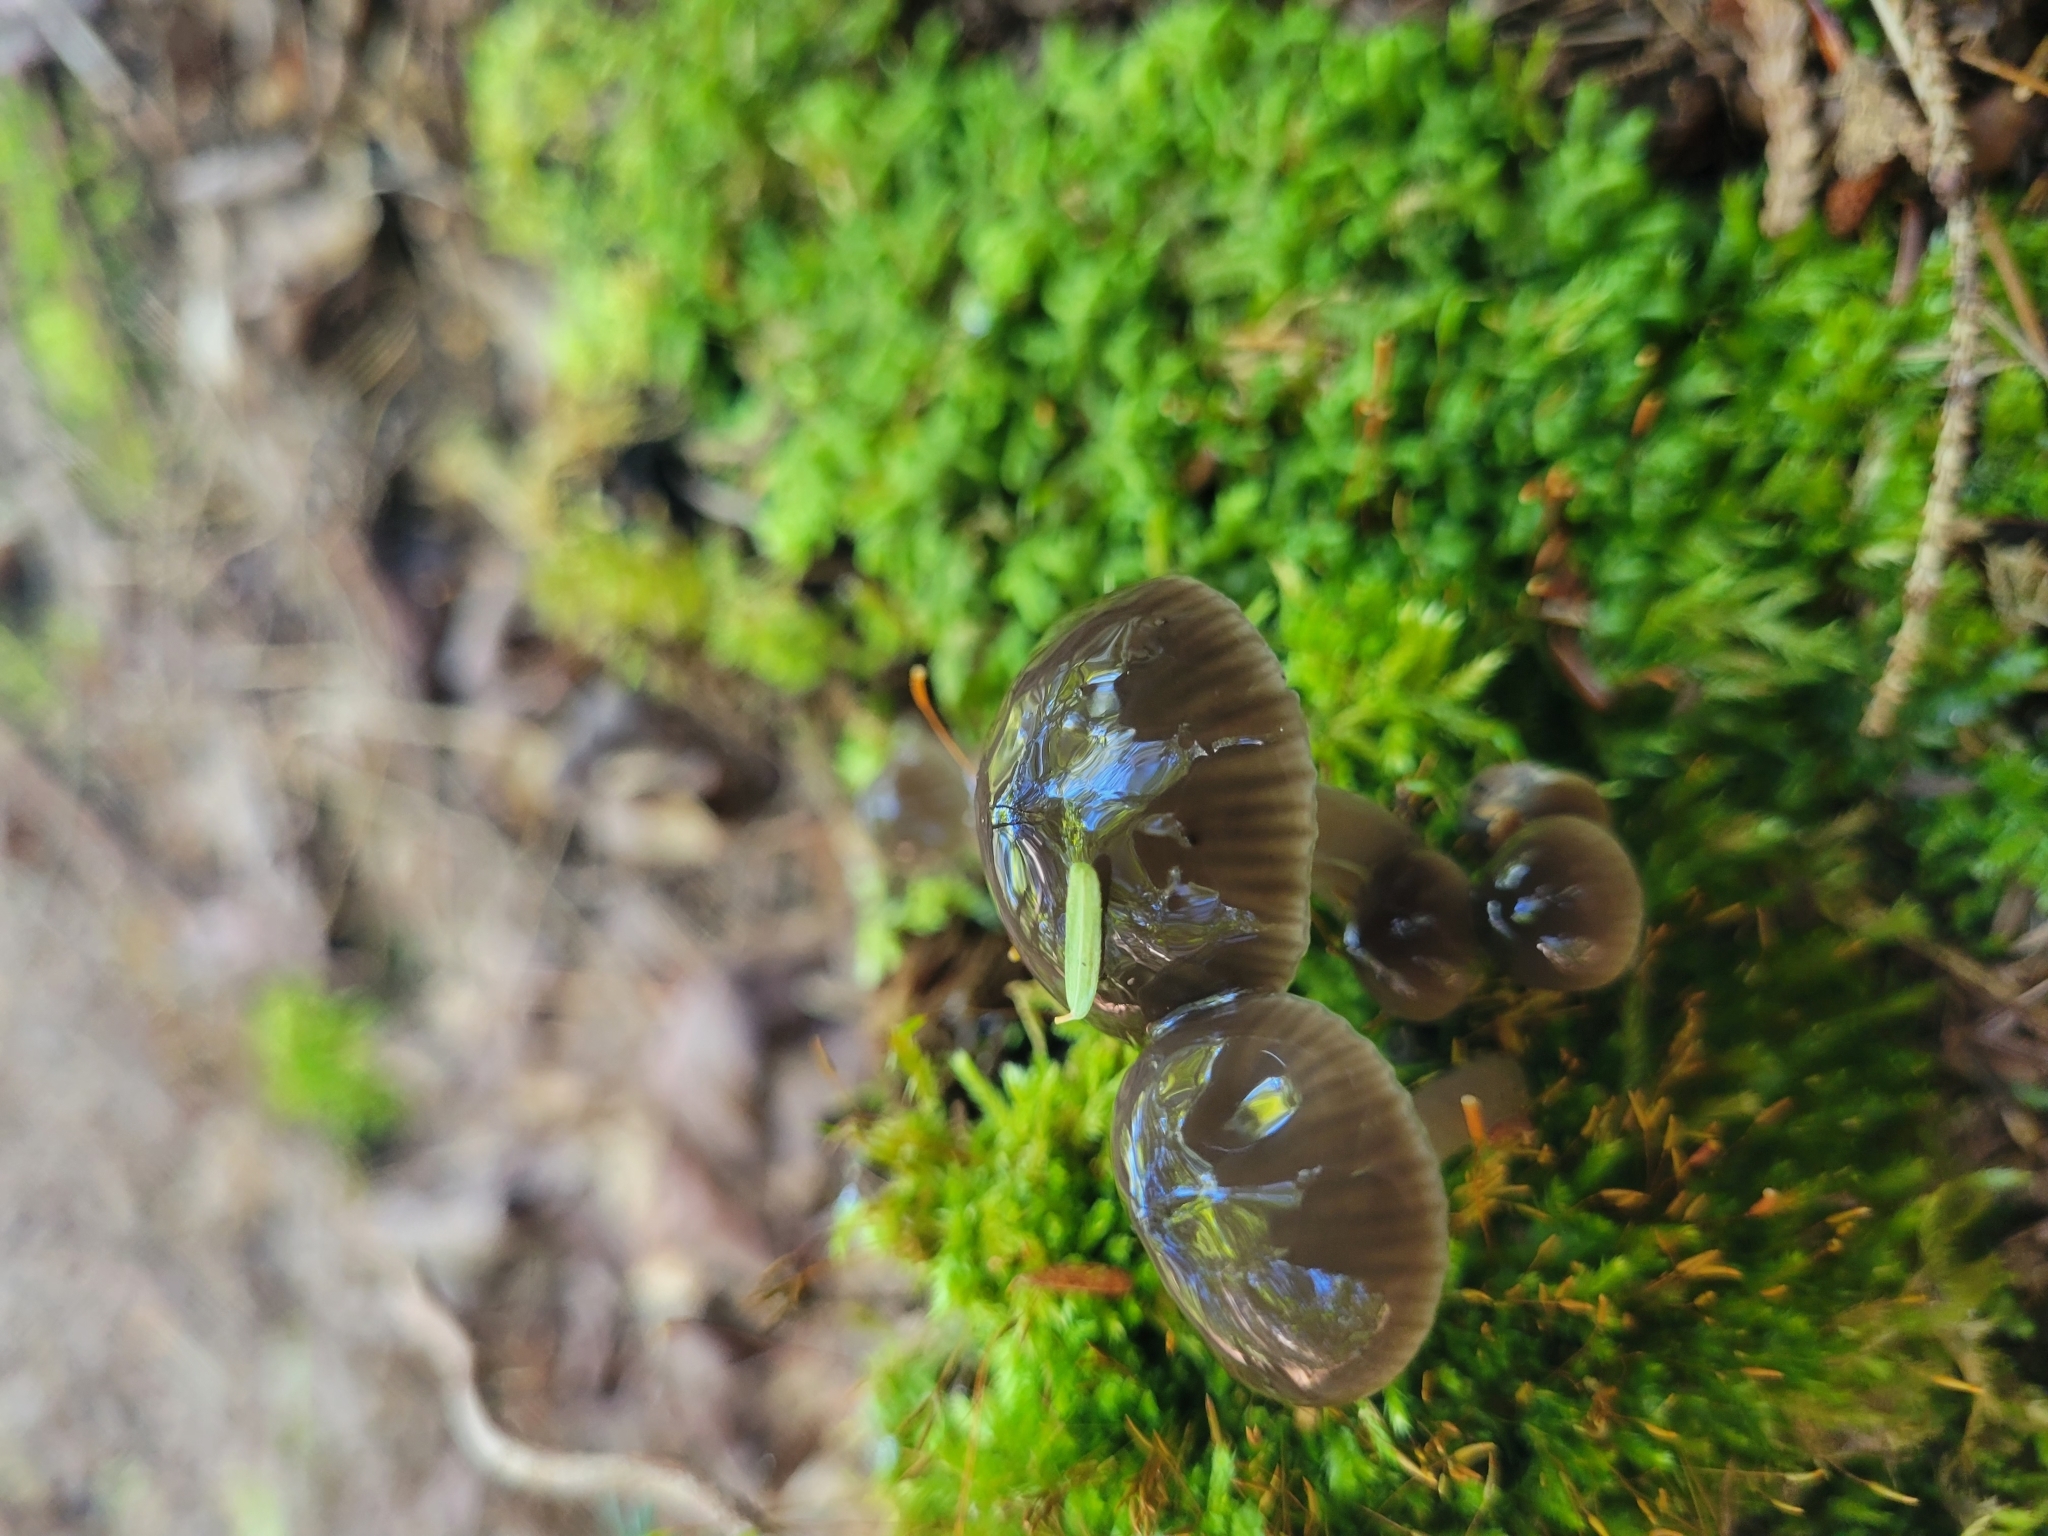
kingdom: Fungi
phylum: Basidiomycota
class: Agaricomycetes
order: Agaricales
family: Hygrophoraceae
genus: Gliophorus
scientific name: Gliophorus irrigatus
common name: Slimy waxcap
